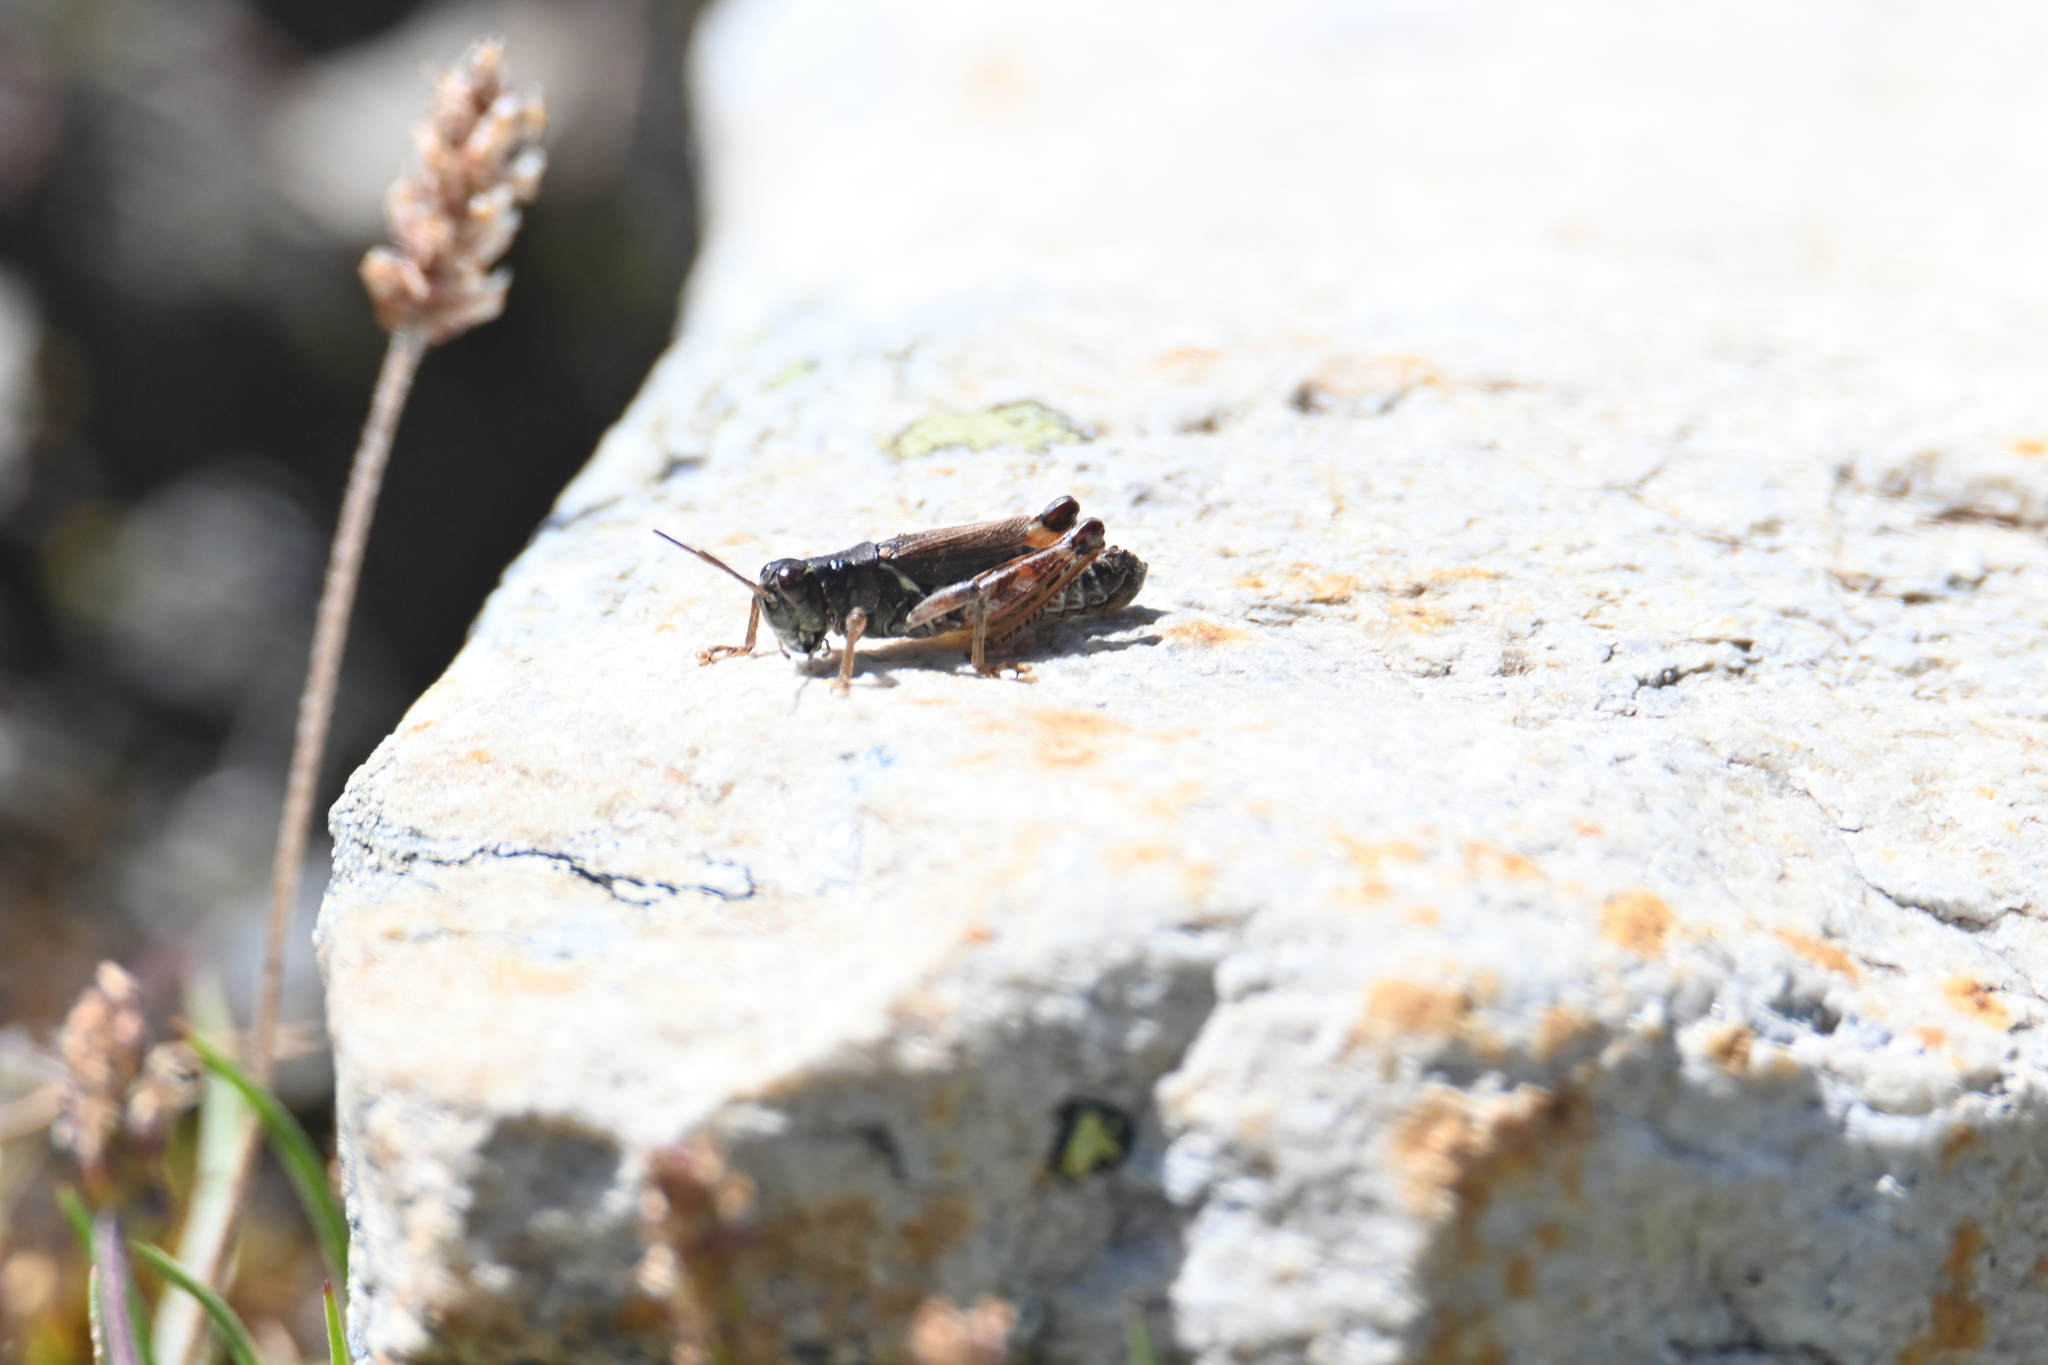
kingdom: Animalia
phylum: Arthropoda
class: Insecta
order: Orthoptera
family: Acrididae
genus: Bohemanella
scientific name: Bohemanella frigida
